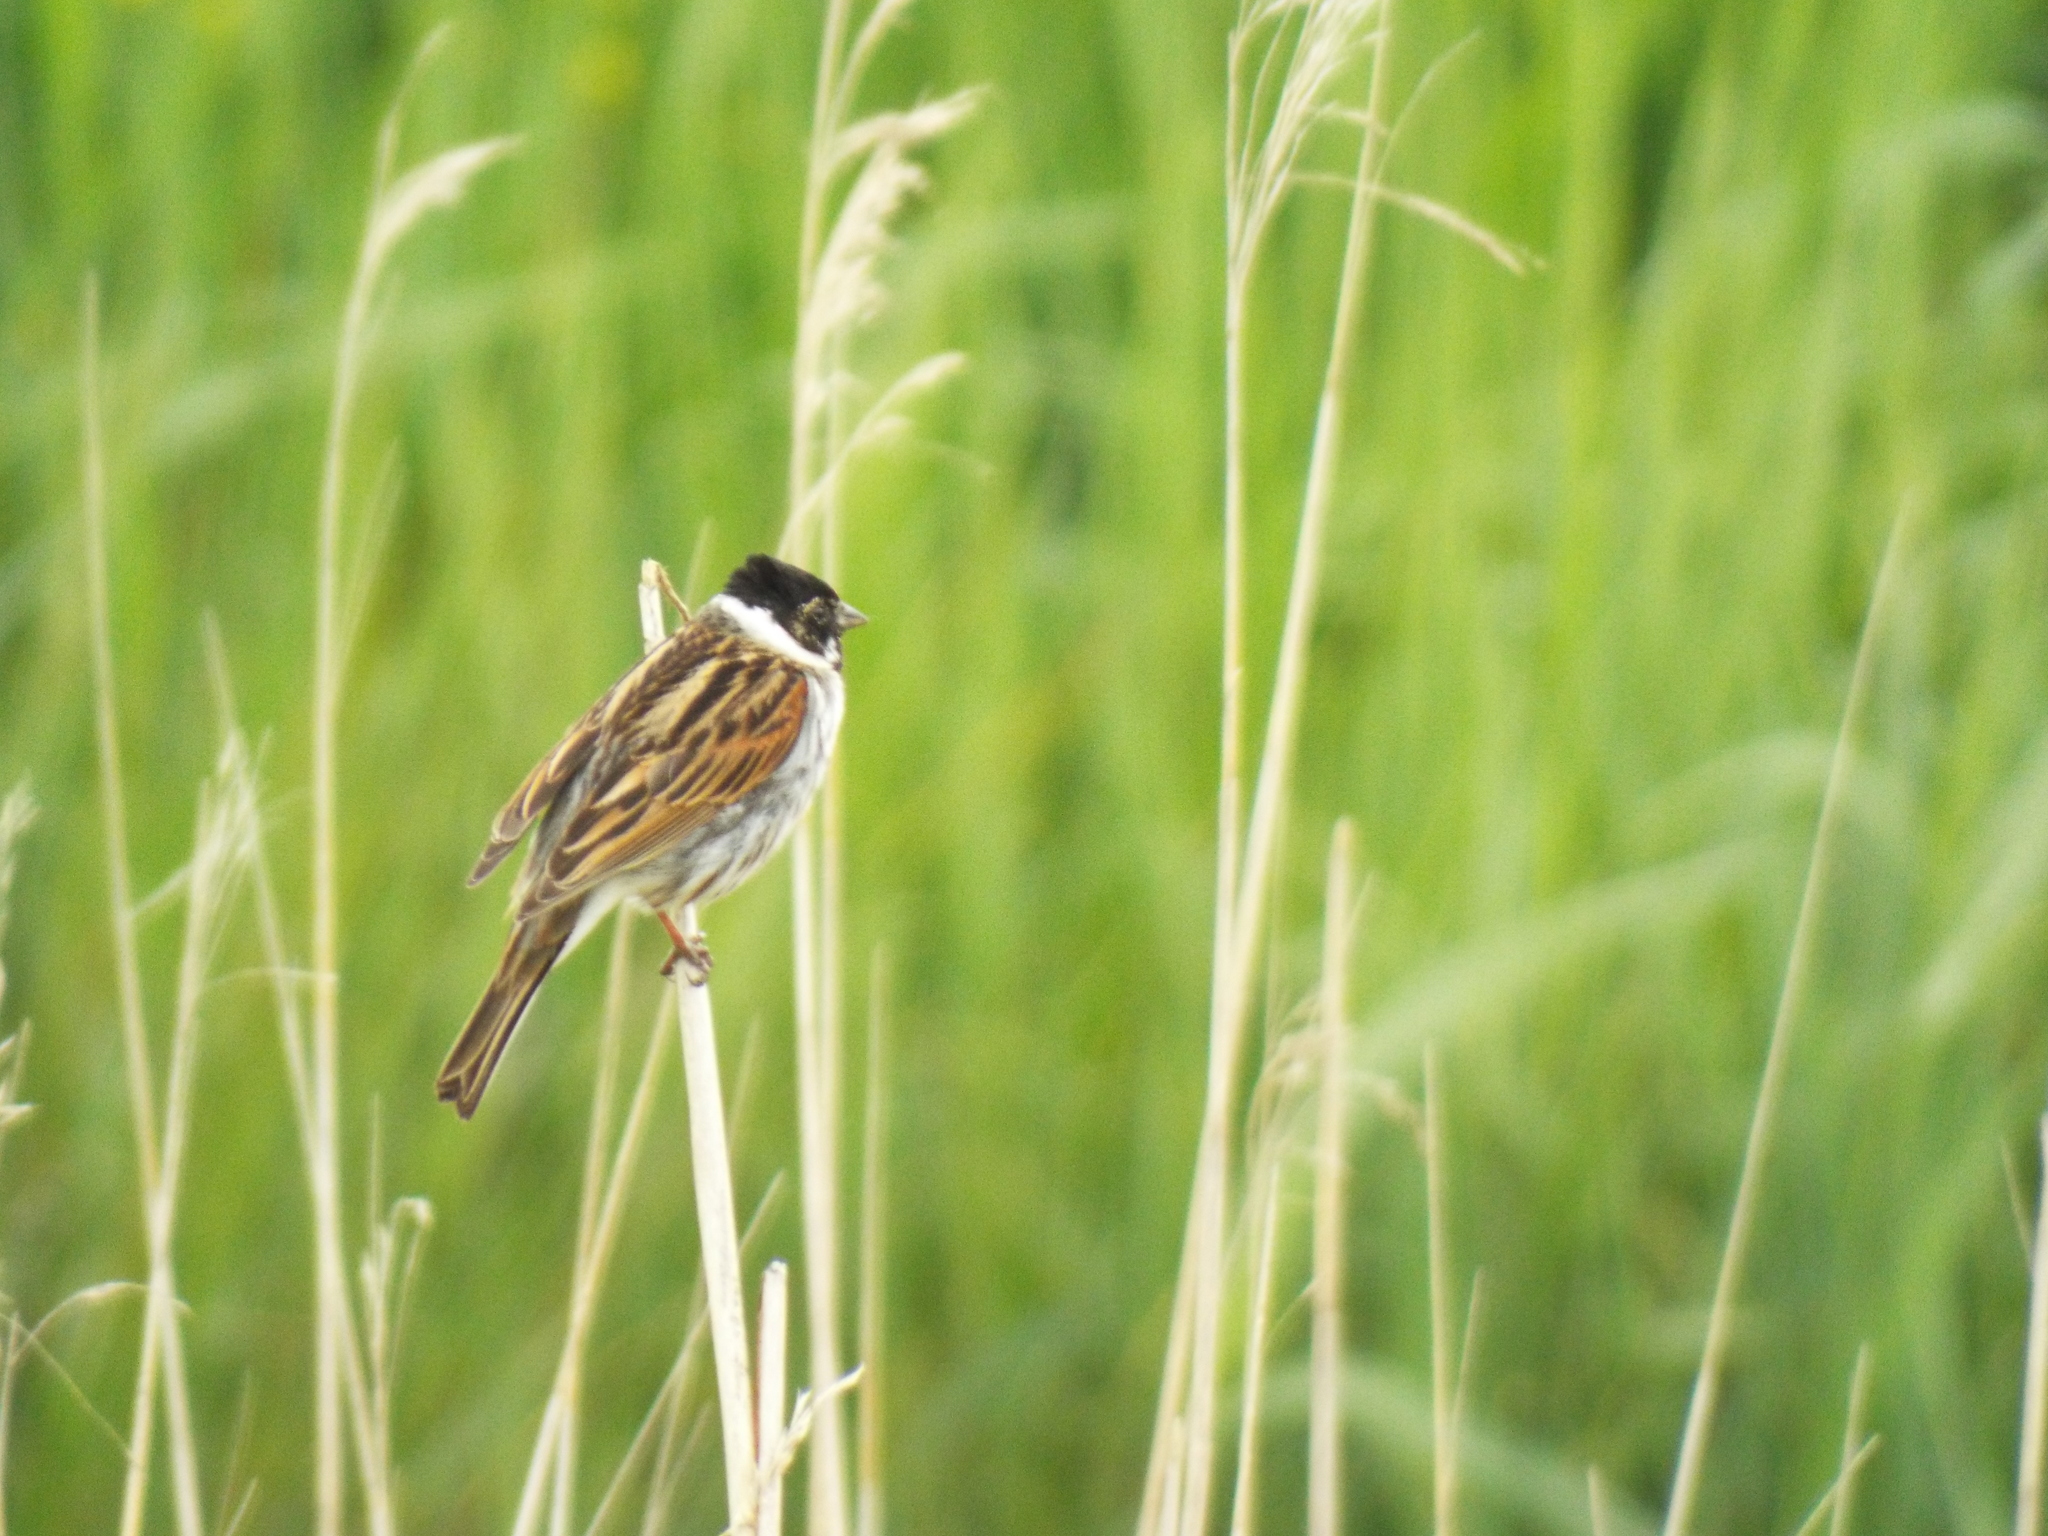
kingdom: Animalia
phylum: Chordata
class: Aves
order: Passeriformes
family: Emberizidae
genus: Emberiza
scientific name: Emberiza schoeniclus
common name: Reed bunting
